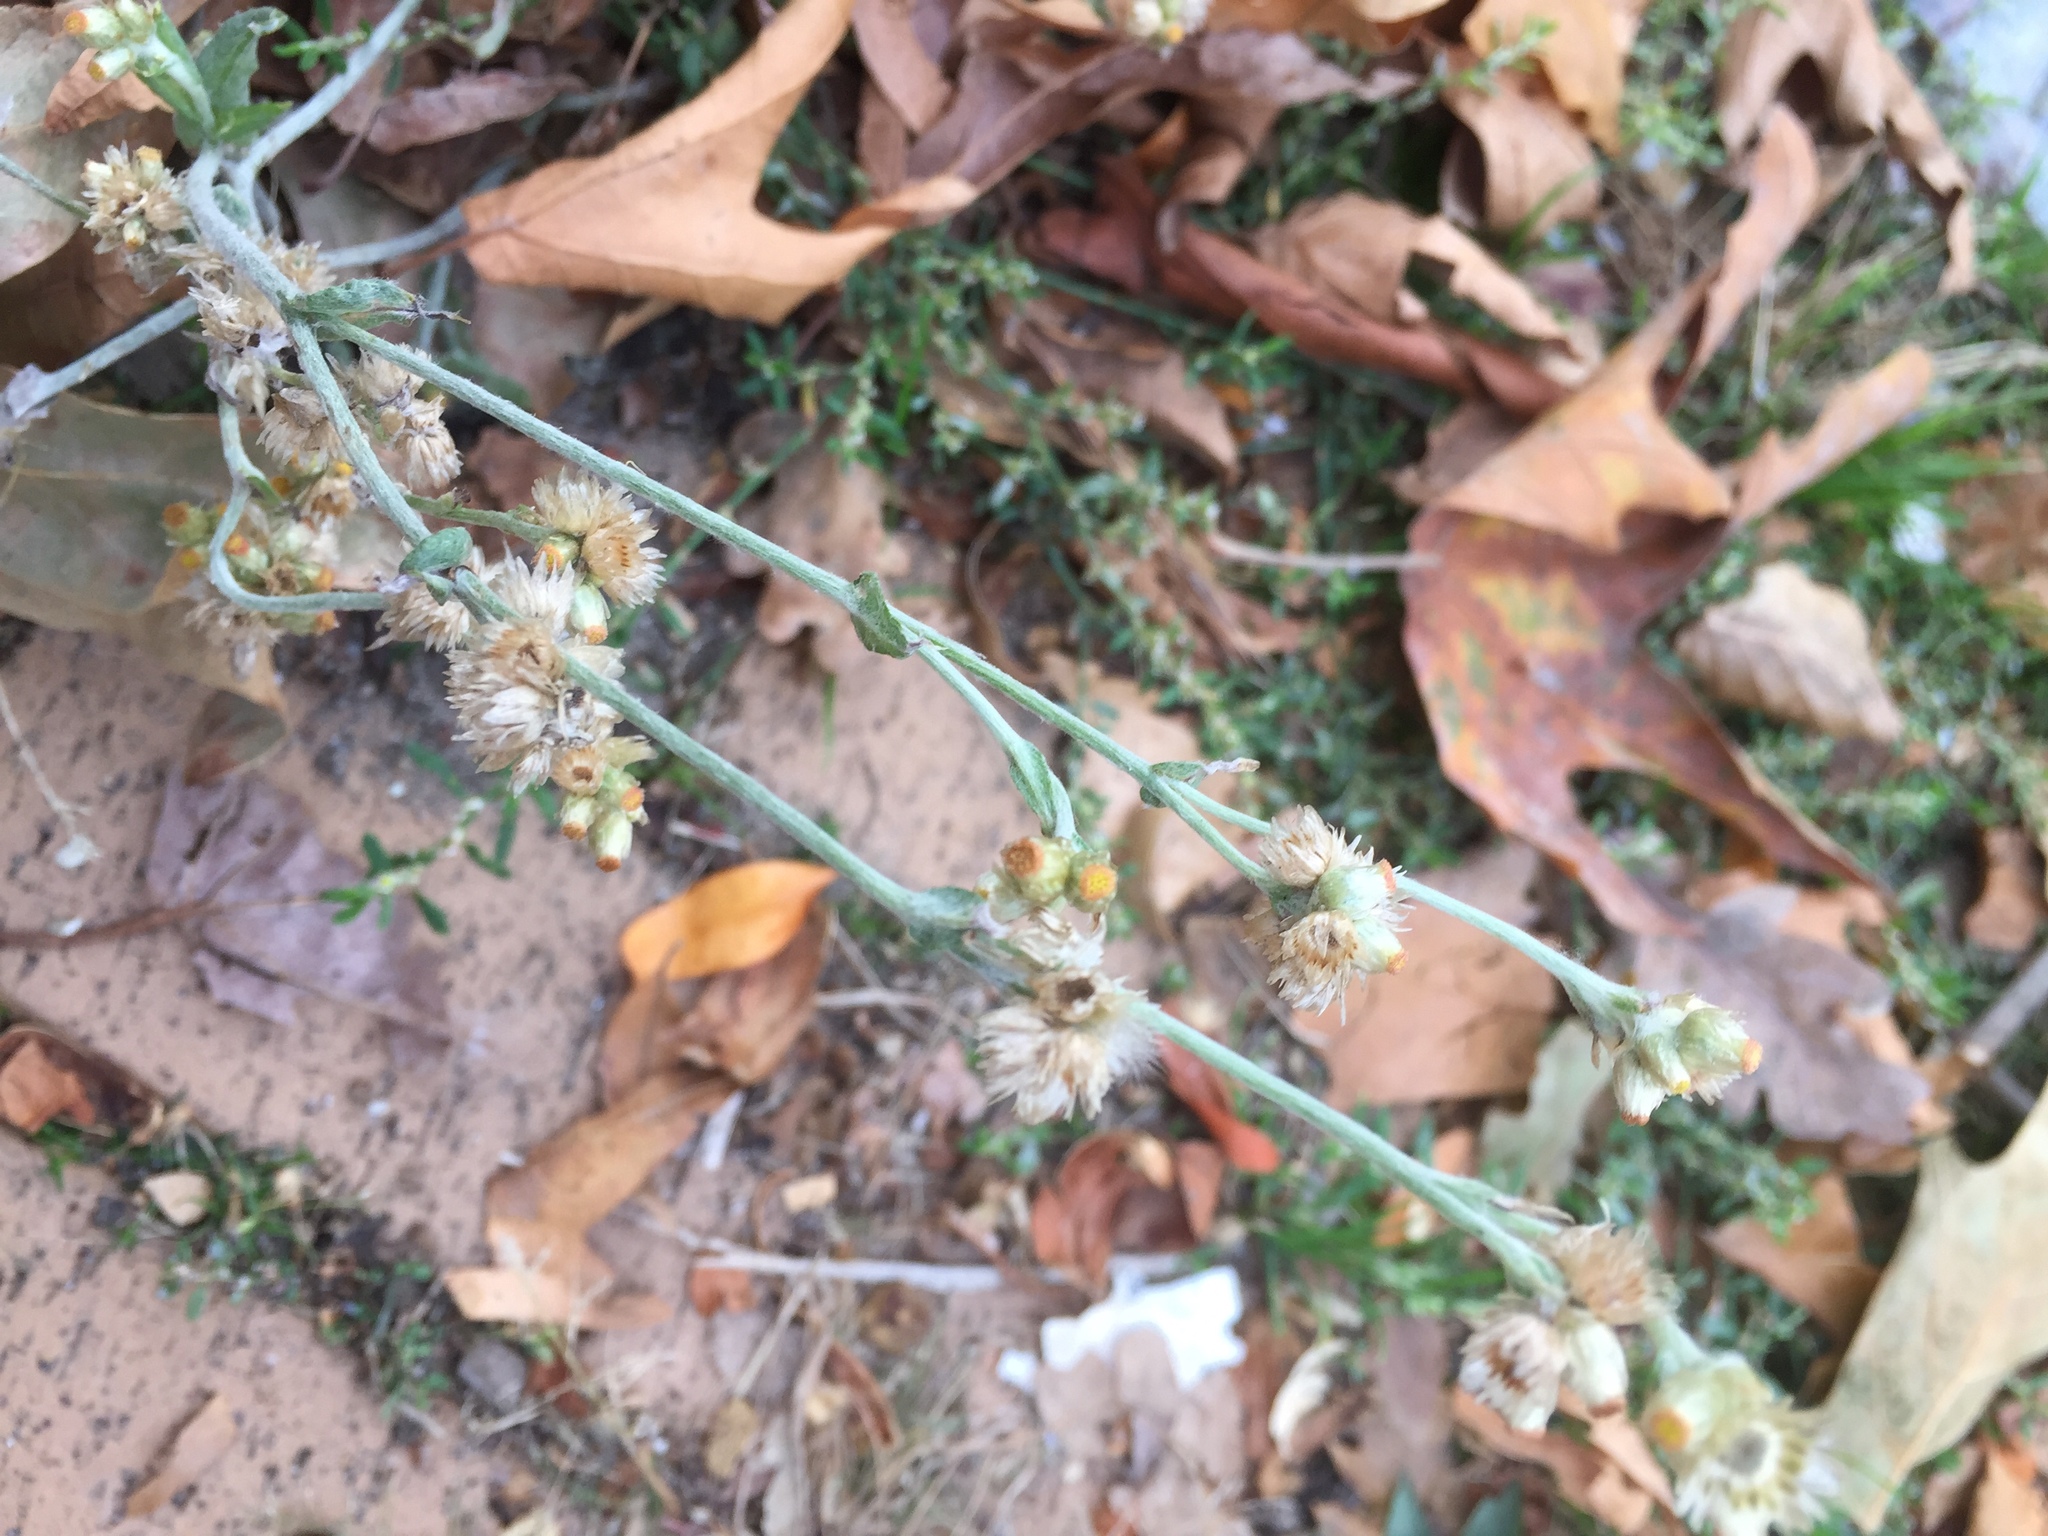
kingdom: Plantae
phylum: Tracheophyta
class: Magnoliopsida
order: Asterales
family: Asteraceae
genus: Helichrysum
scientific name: Helichrysum luteoalbum
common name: Daisy
